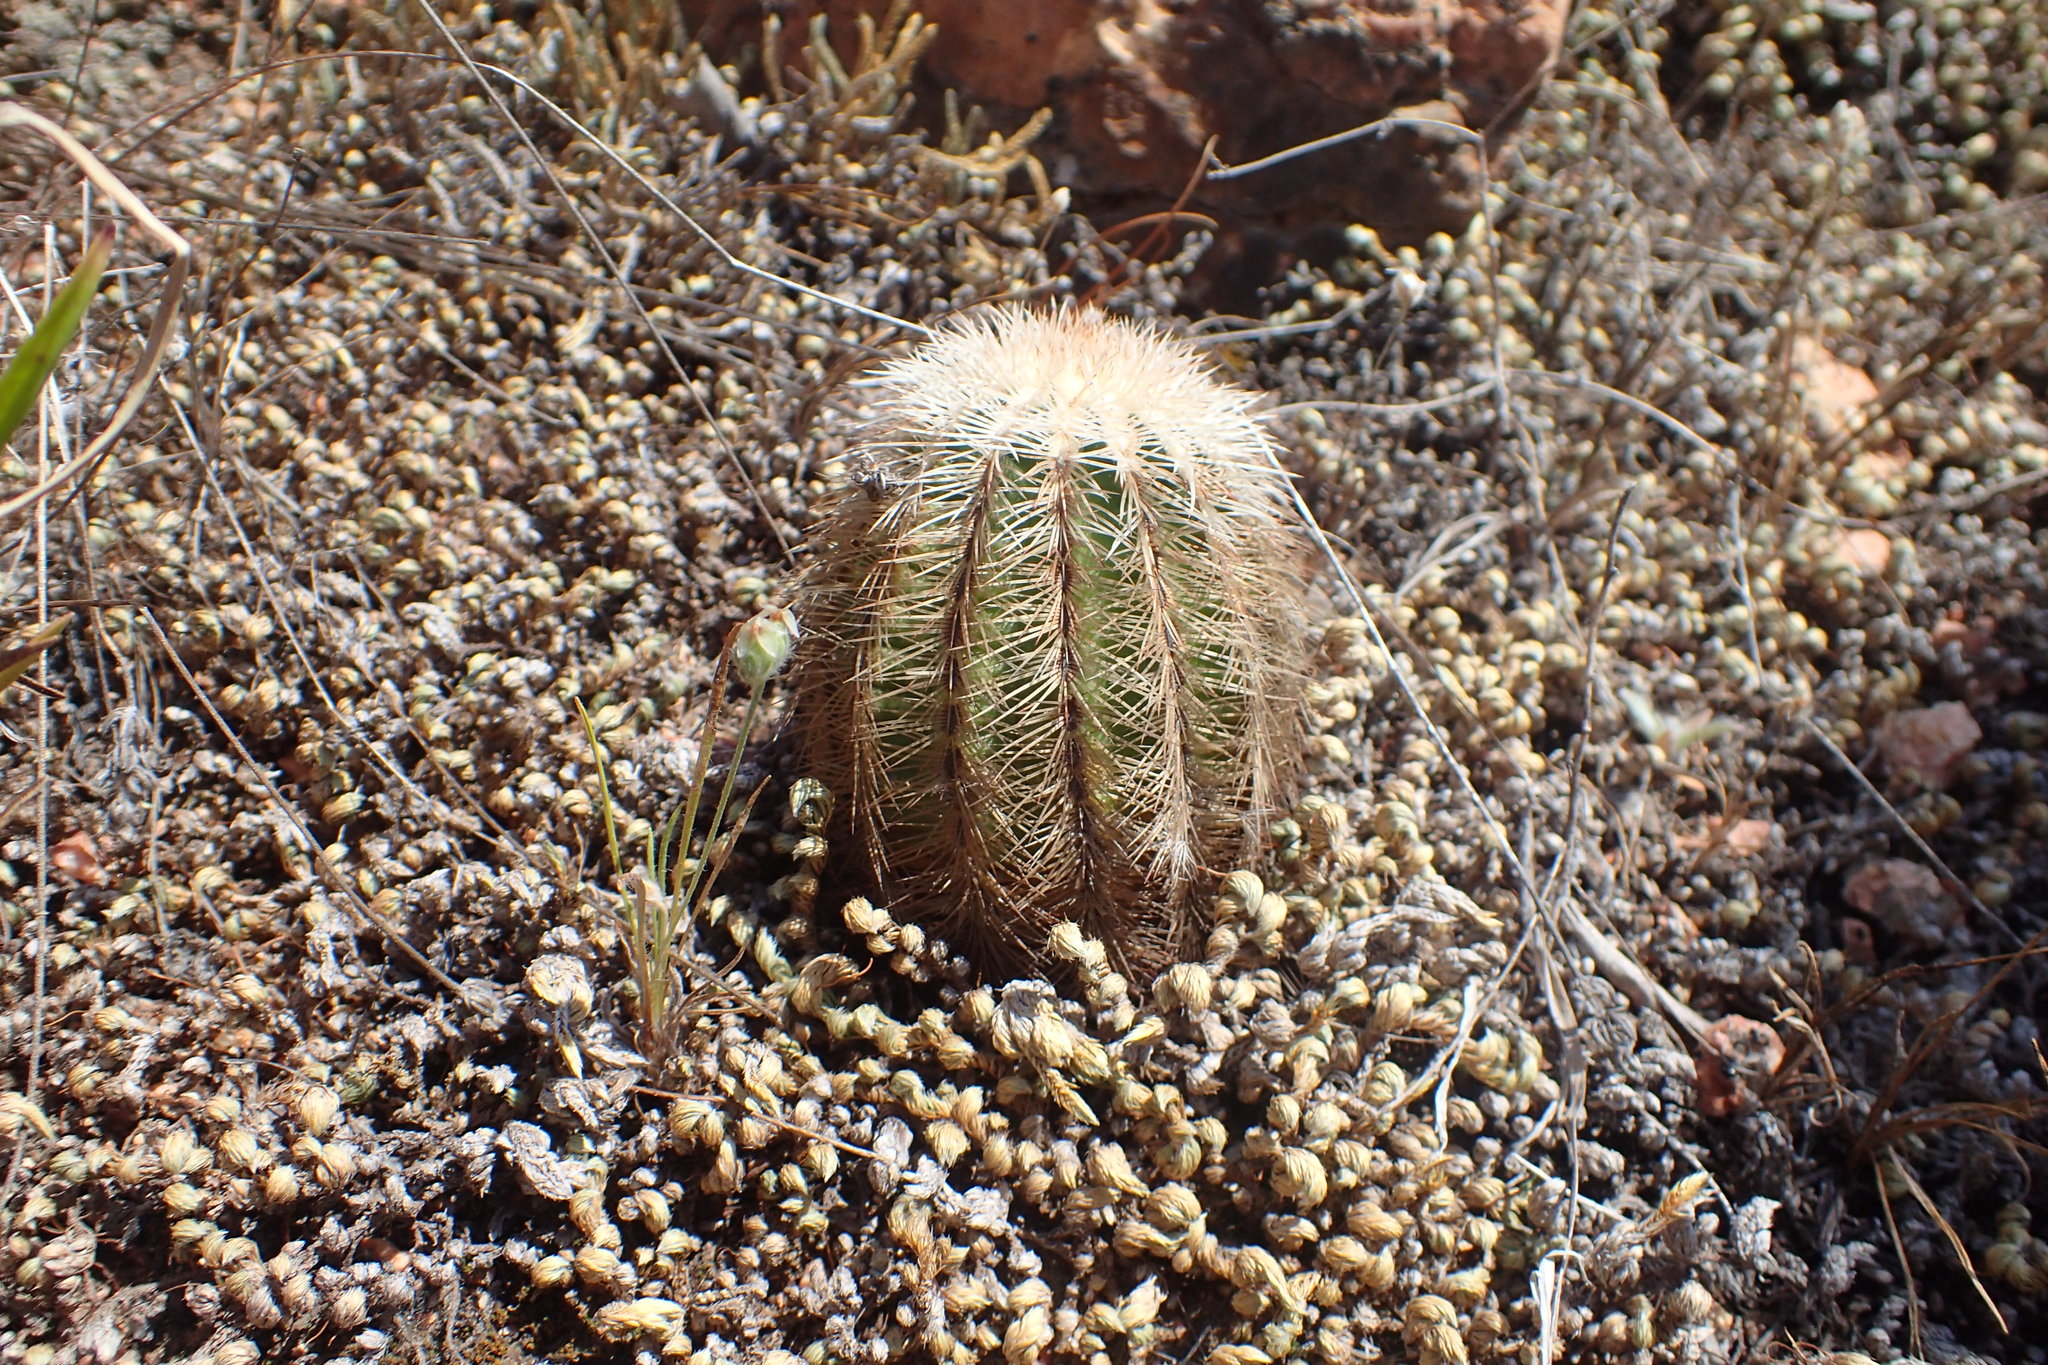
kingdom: Plantae
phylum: Tracheophyta
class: Magnoliopsida
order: Caryophyllales
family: Cactaceae
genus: Echinocereus
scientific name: Echinocereus reichenbachii
